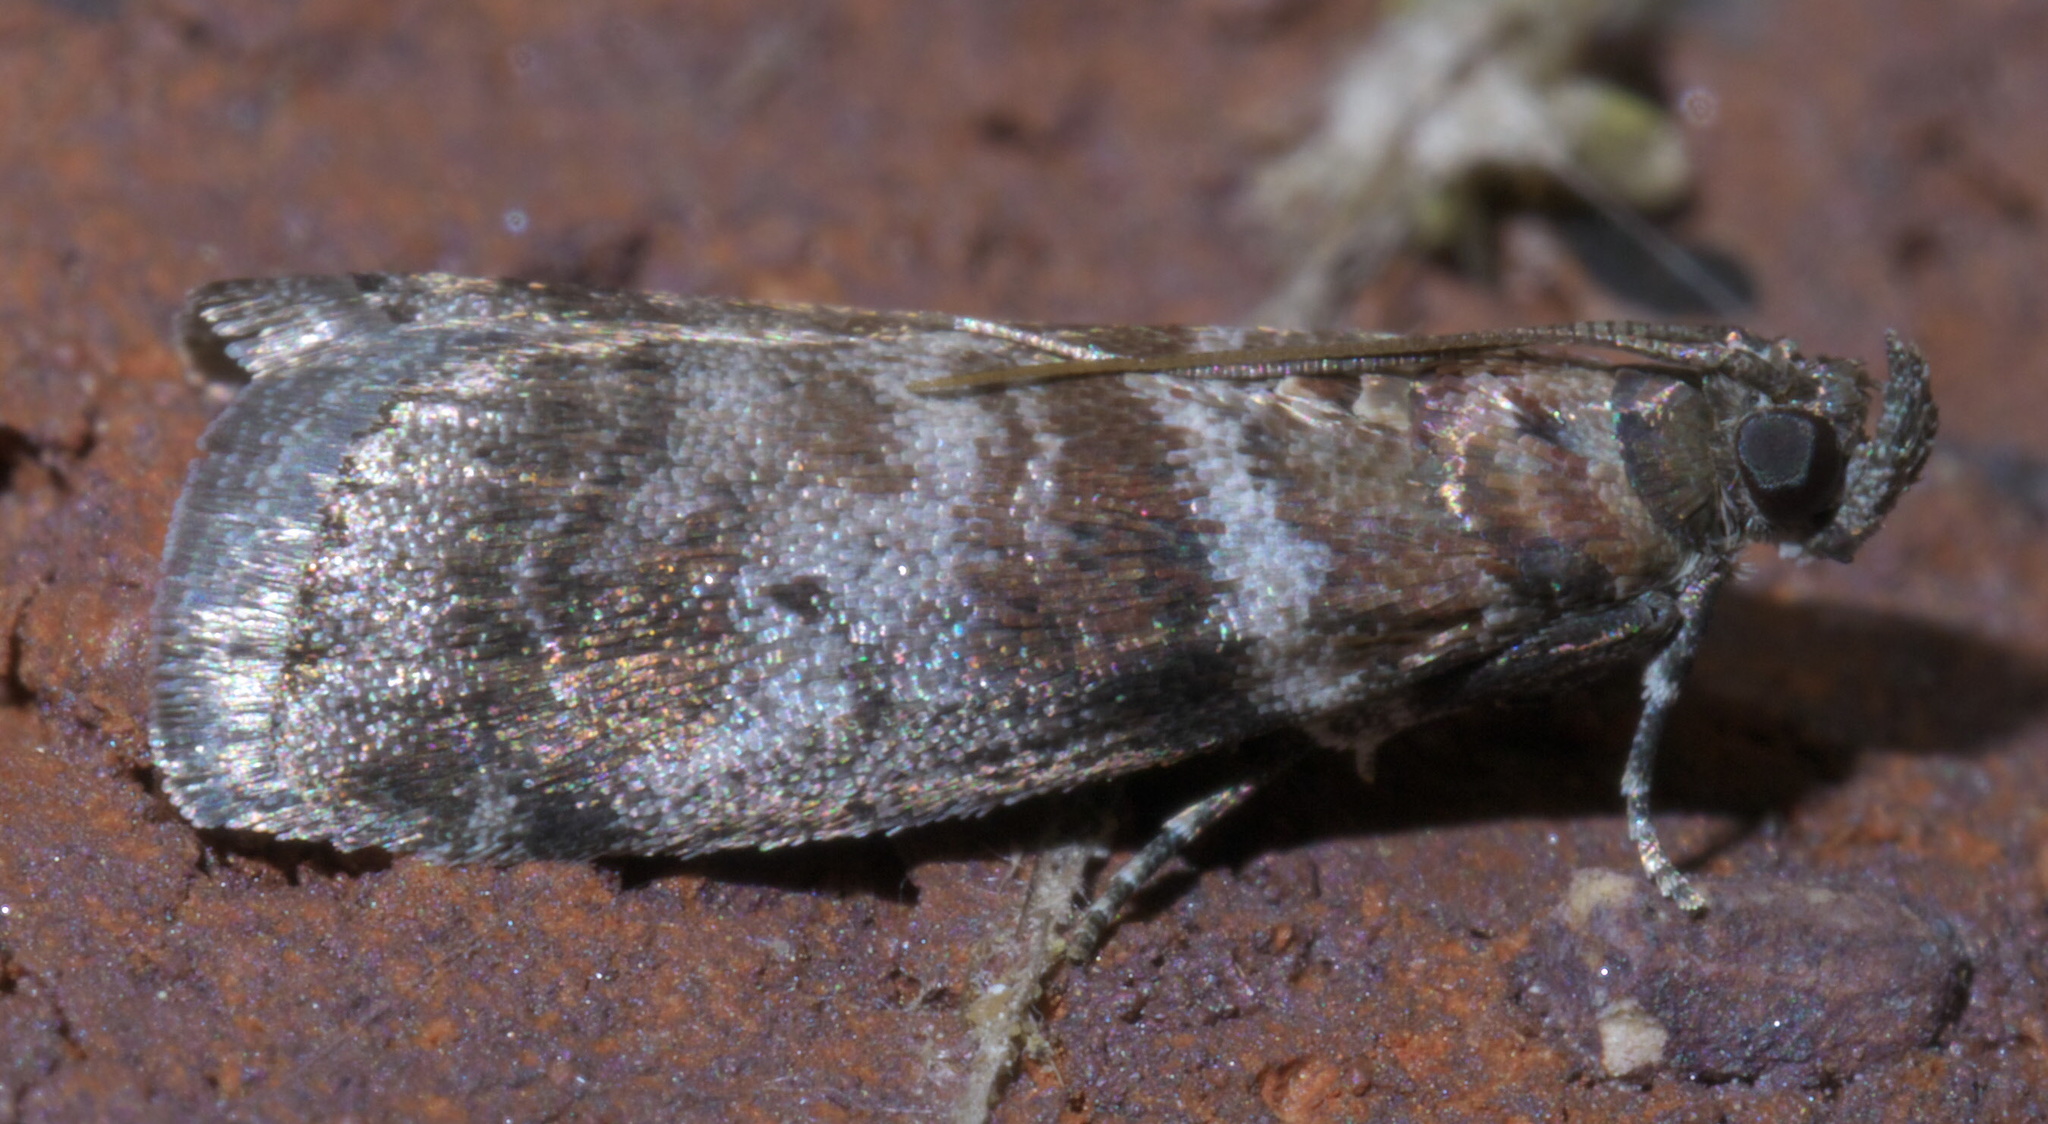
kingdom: Animalia
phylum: Arthropoda
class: Insecta
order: Lepidoptera
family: Pyralidae
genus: Sciota
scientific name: Sciota uvinella
